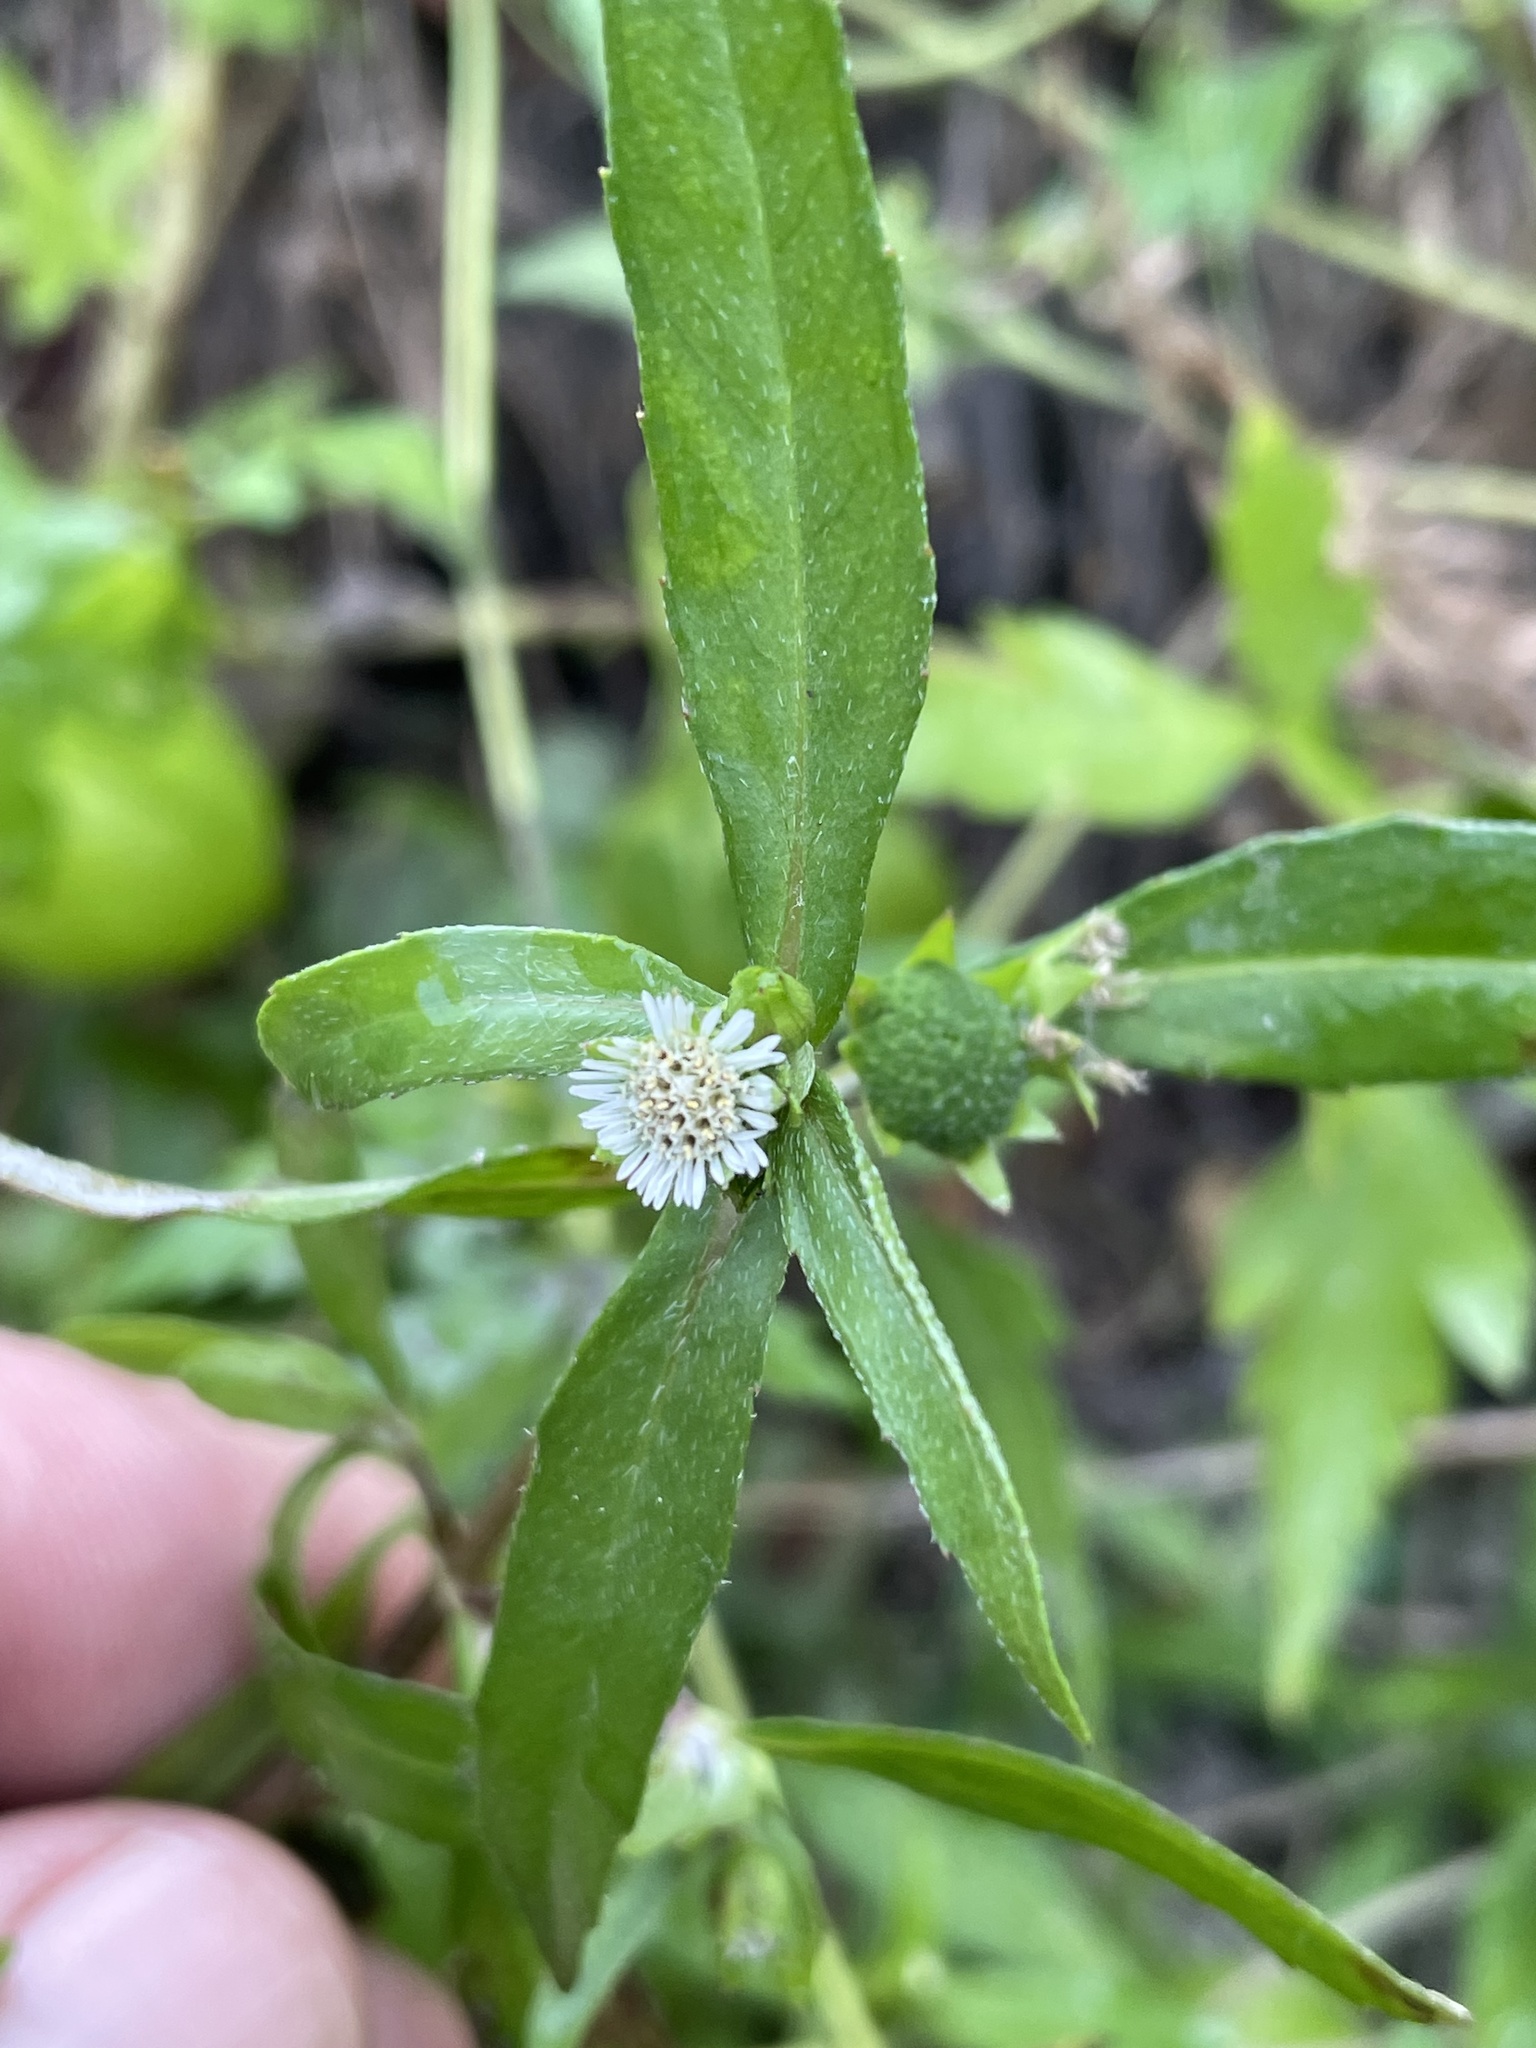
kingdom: Plantae
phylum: Tracheophyta
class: Magnoliopsida
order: Asterales
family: Asteraceae
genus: Eclipta
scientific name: Eclipta prostrata
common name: False daisy
